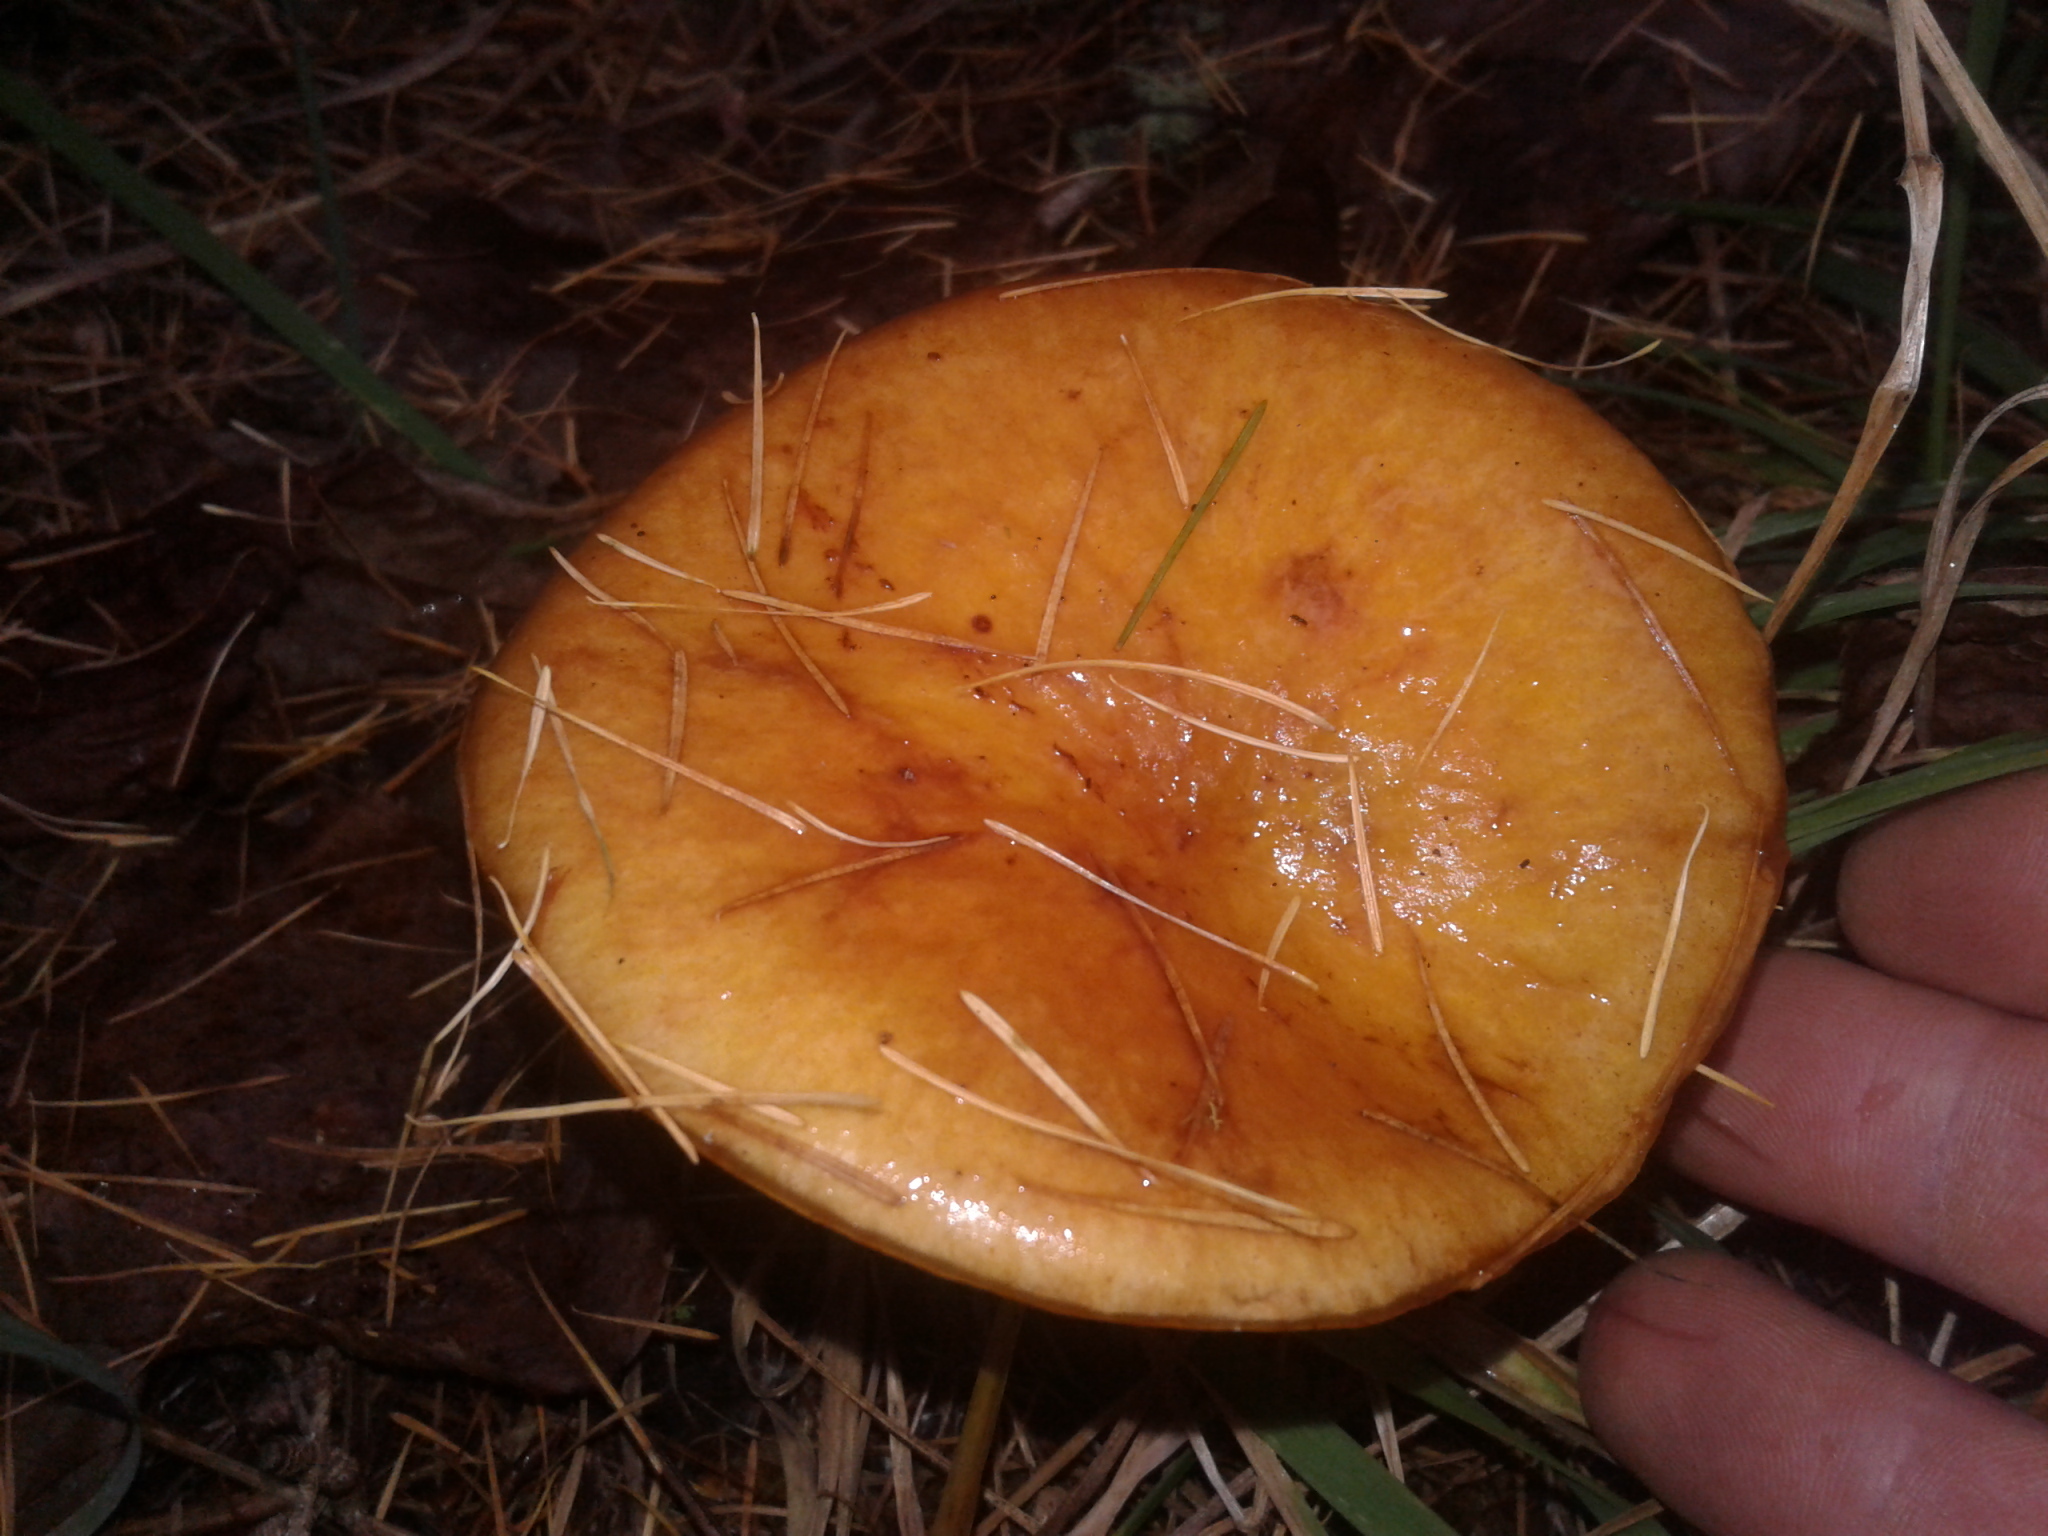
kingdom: Fungi
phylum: Basidiomycota
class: Agaricomycetes
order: Boletales
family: Suillaceae
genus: Suillus
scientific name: Suillus bovinus
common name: Bovine bolete
